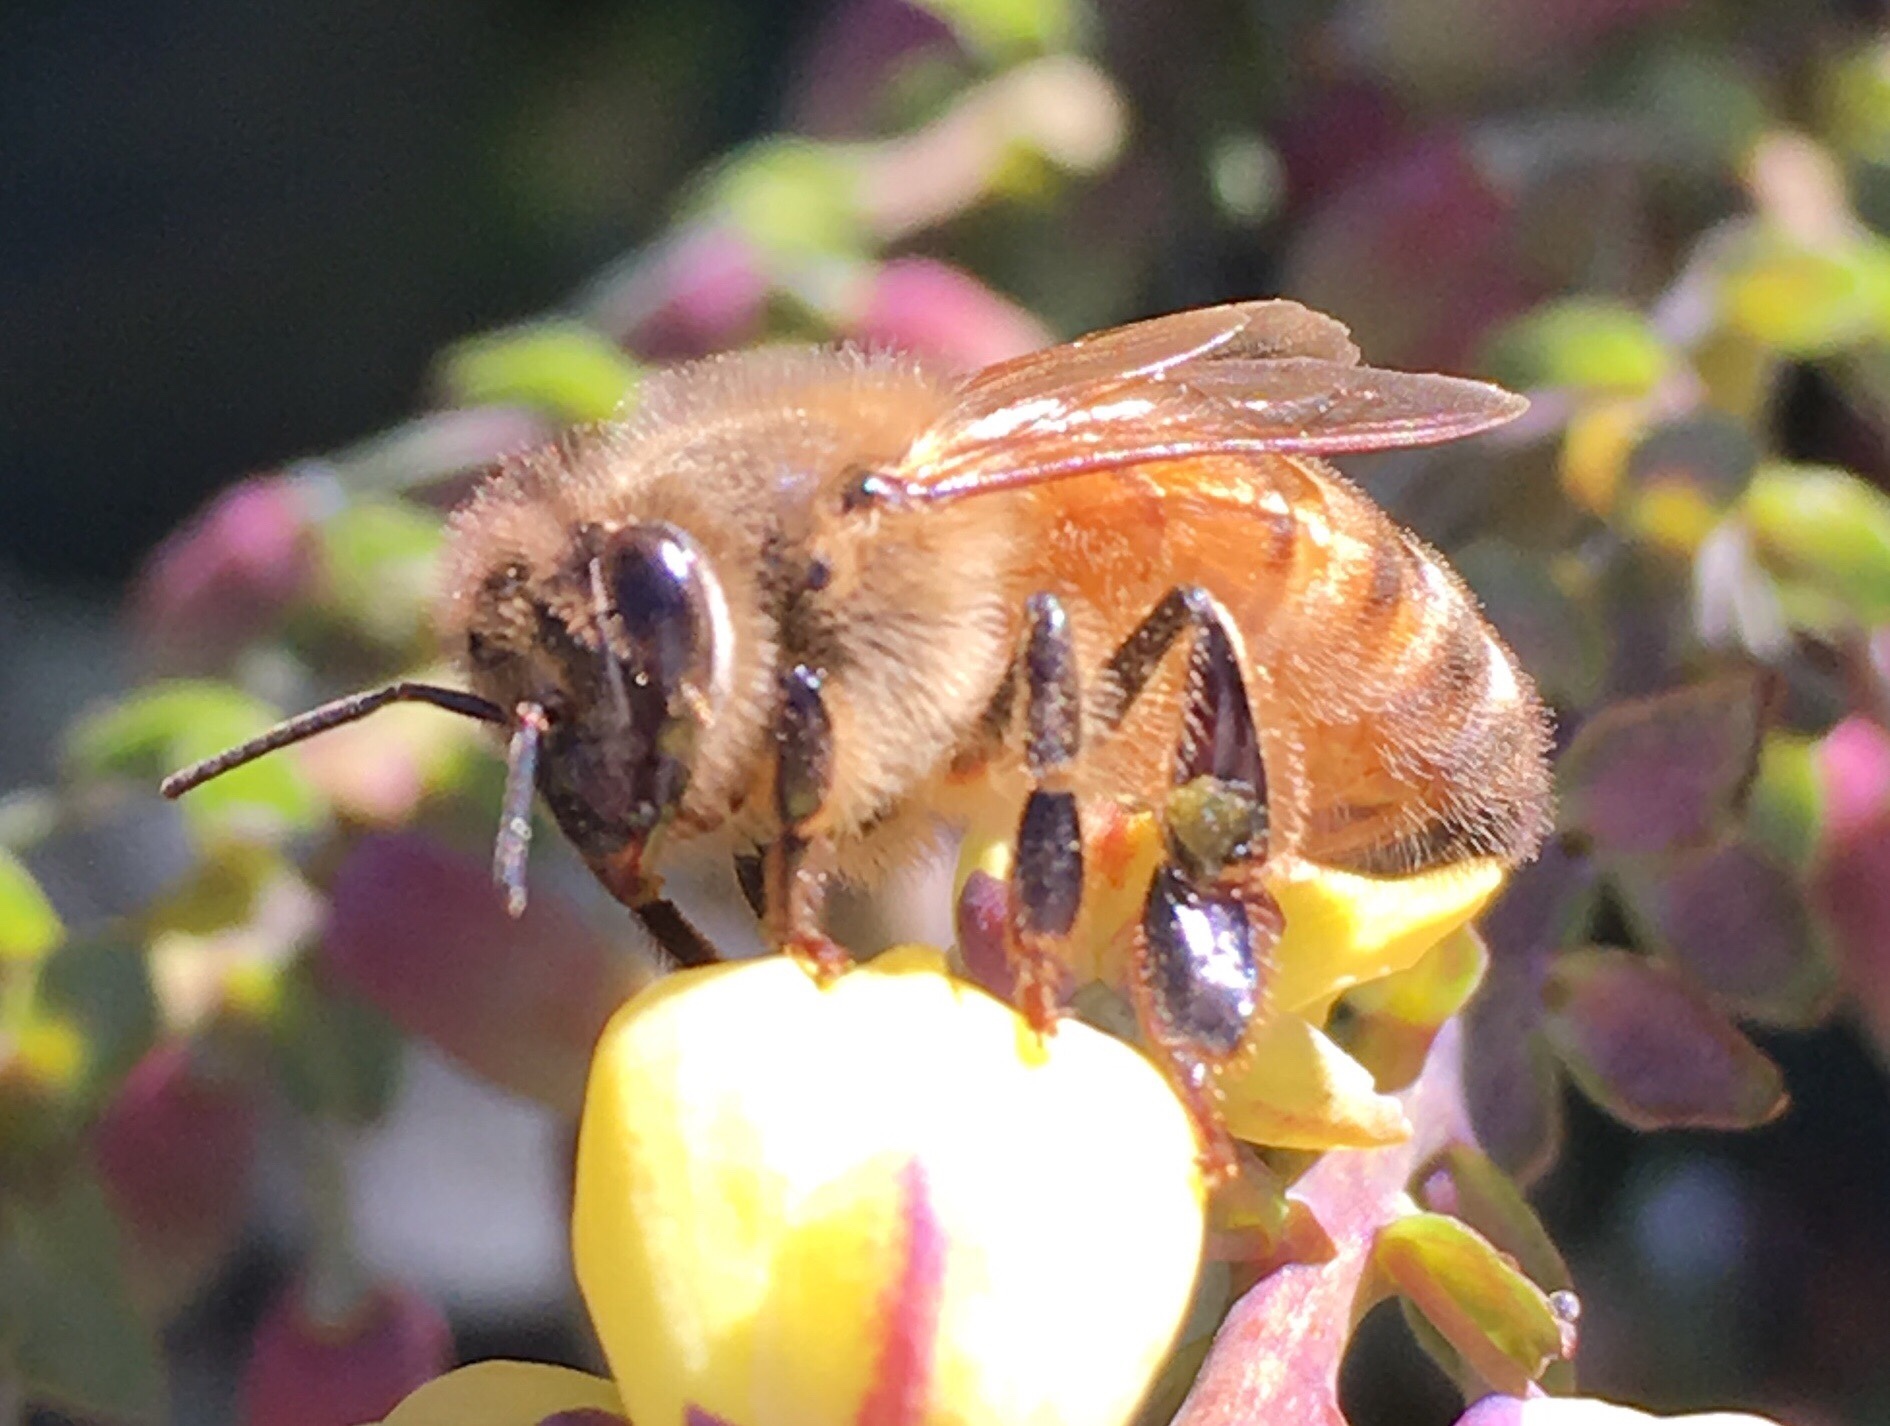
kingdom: Animalia
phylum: Arthropoda
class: Insecta
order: Hymenoptera
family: Apidae
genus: Apis
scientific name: Apis mellifera
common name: Honey bee
